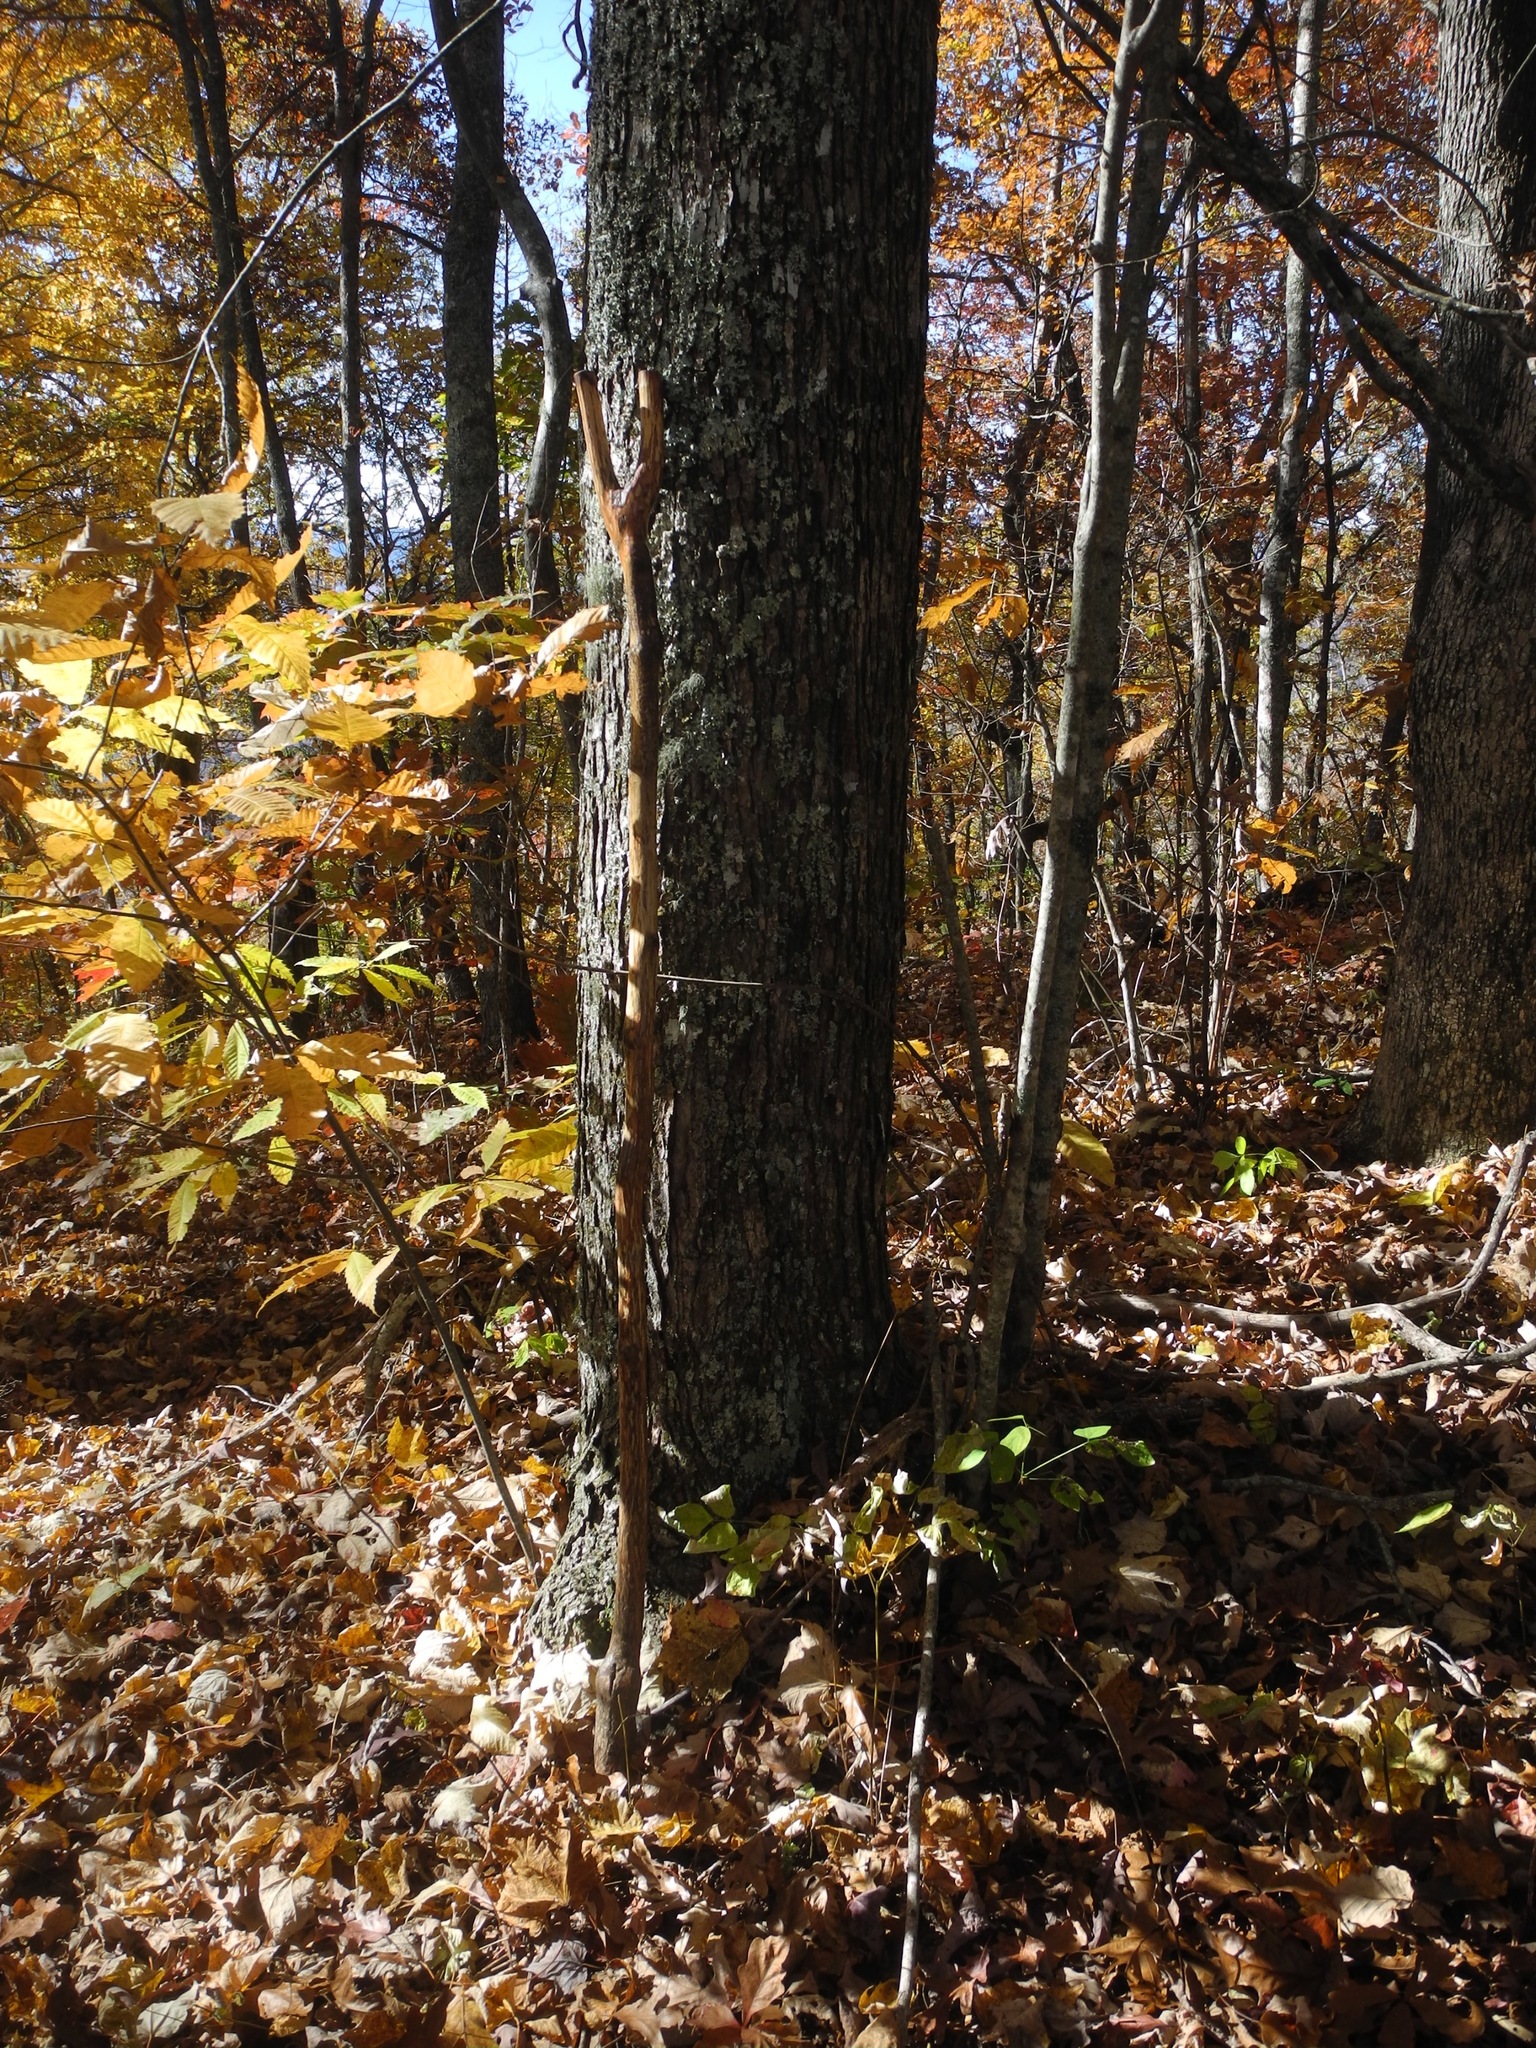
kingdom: Plantae
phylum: Tracheophyta
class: Magnoliopsida
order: Sapindales
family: Sapindaceae
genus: Acer
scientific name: Acer rubrum
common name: Red maple
